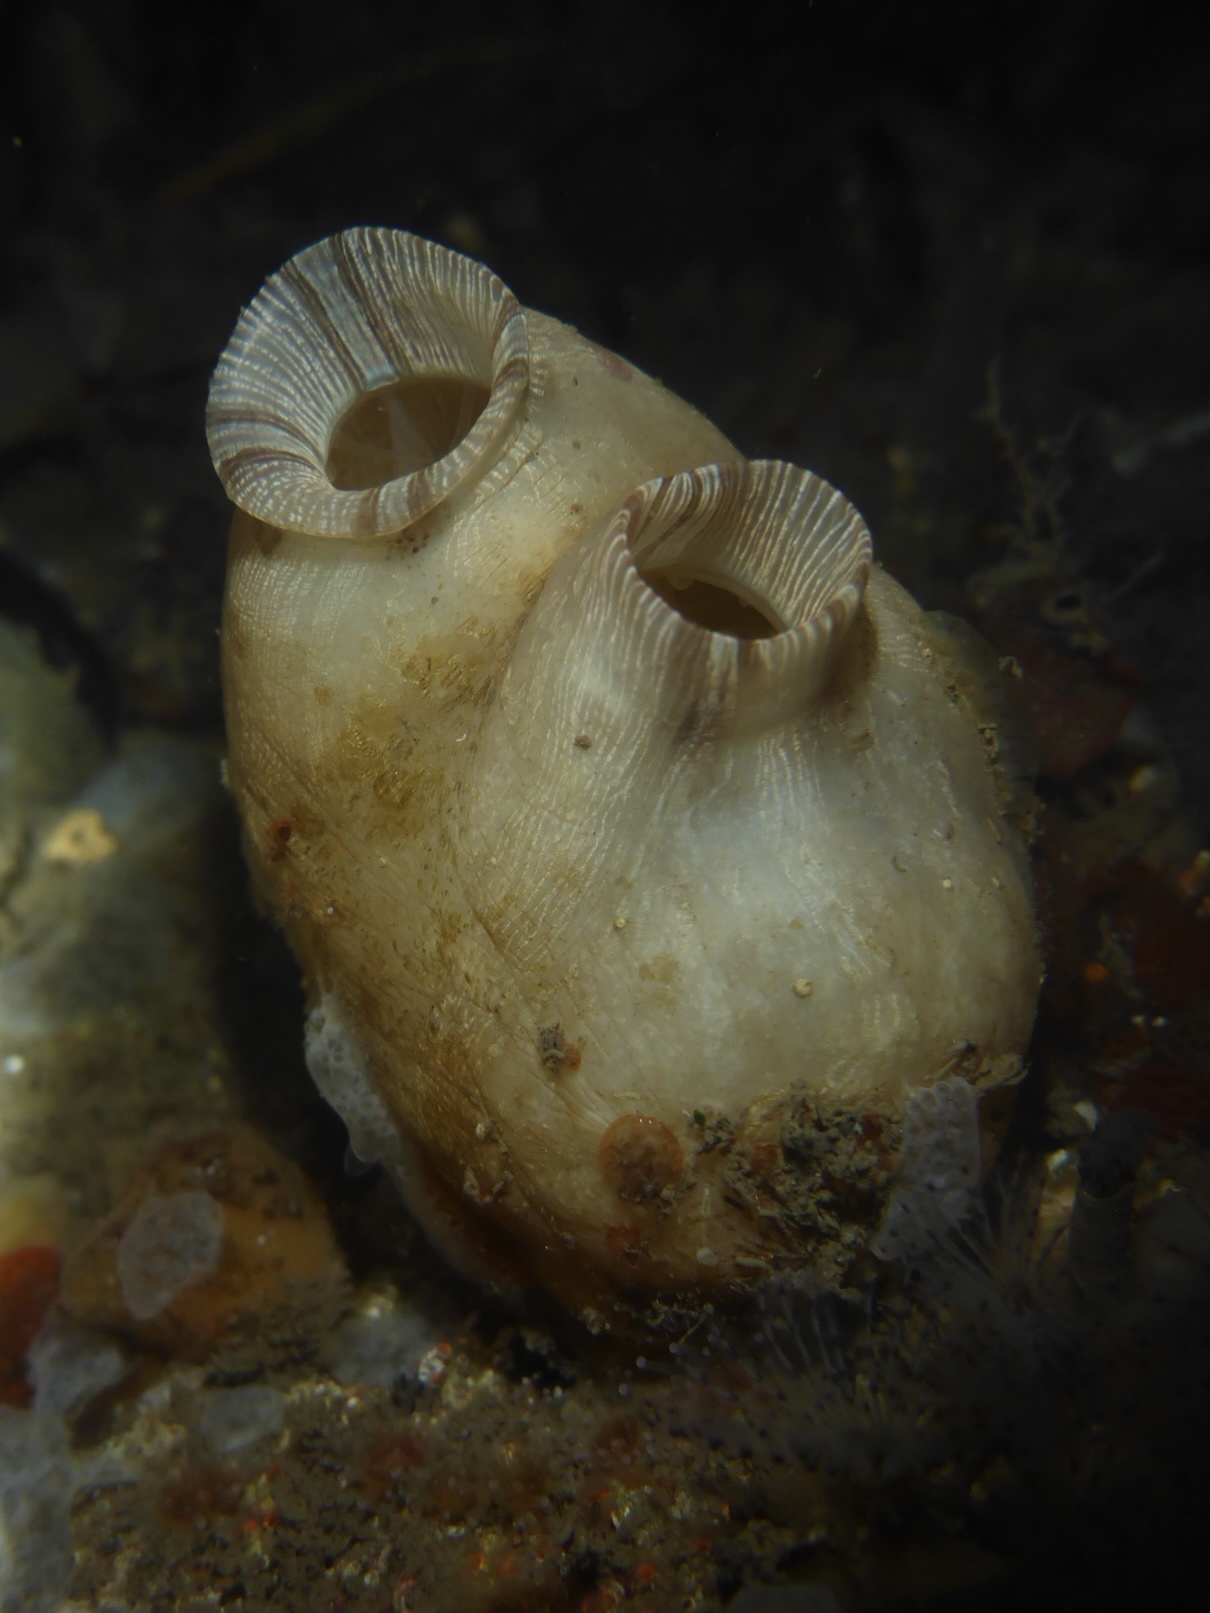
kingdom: Animalia
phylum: Chordata
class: Ascidiacea
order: Stolidobranchia
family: Styelidae
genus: Styela
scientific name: Styela plicata
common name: Pleated tunicate
